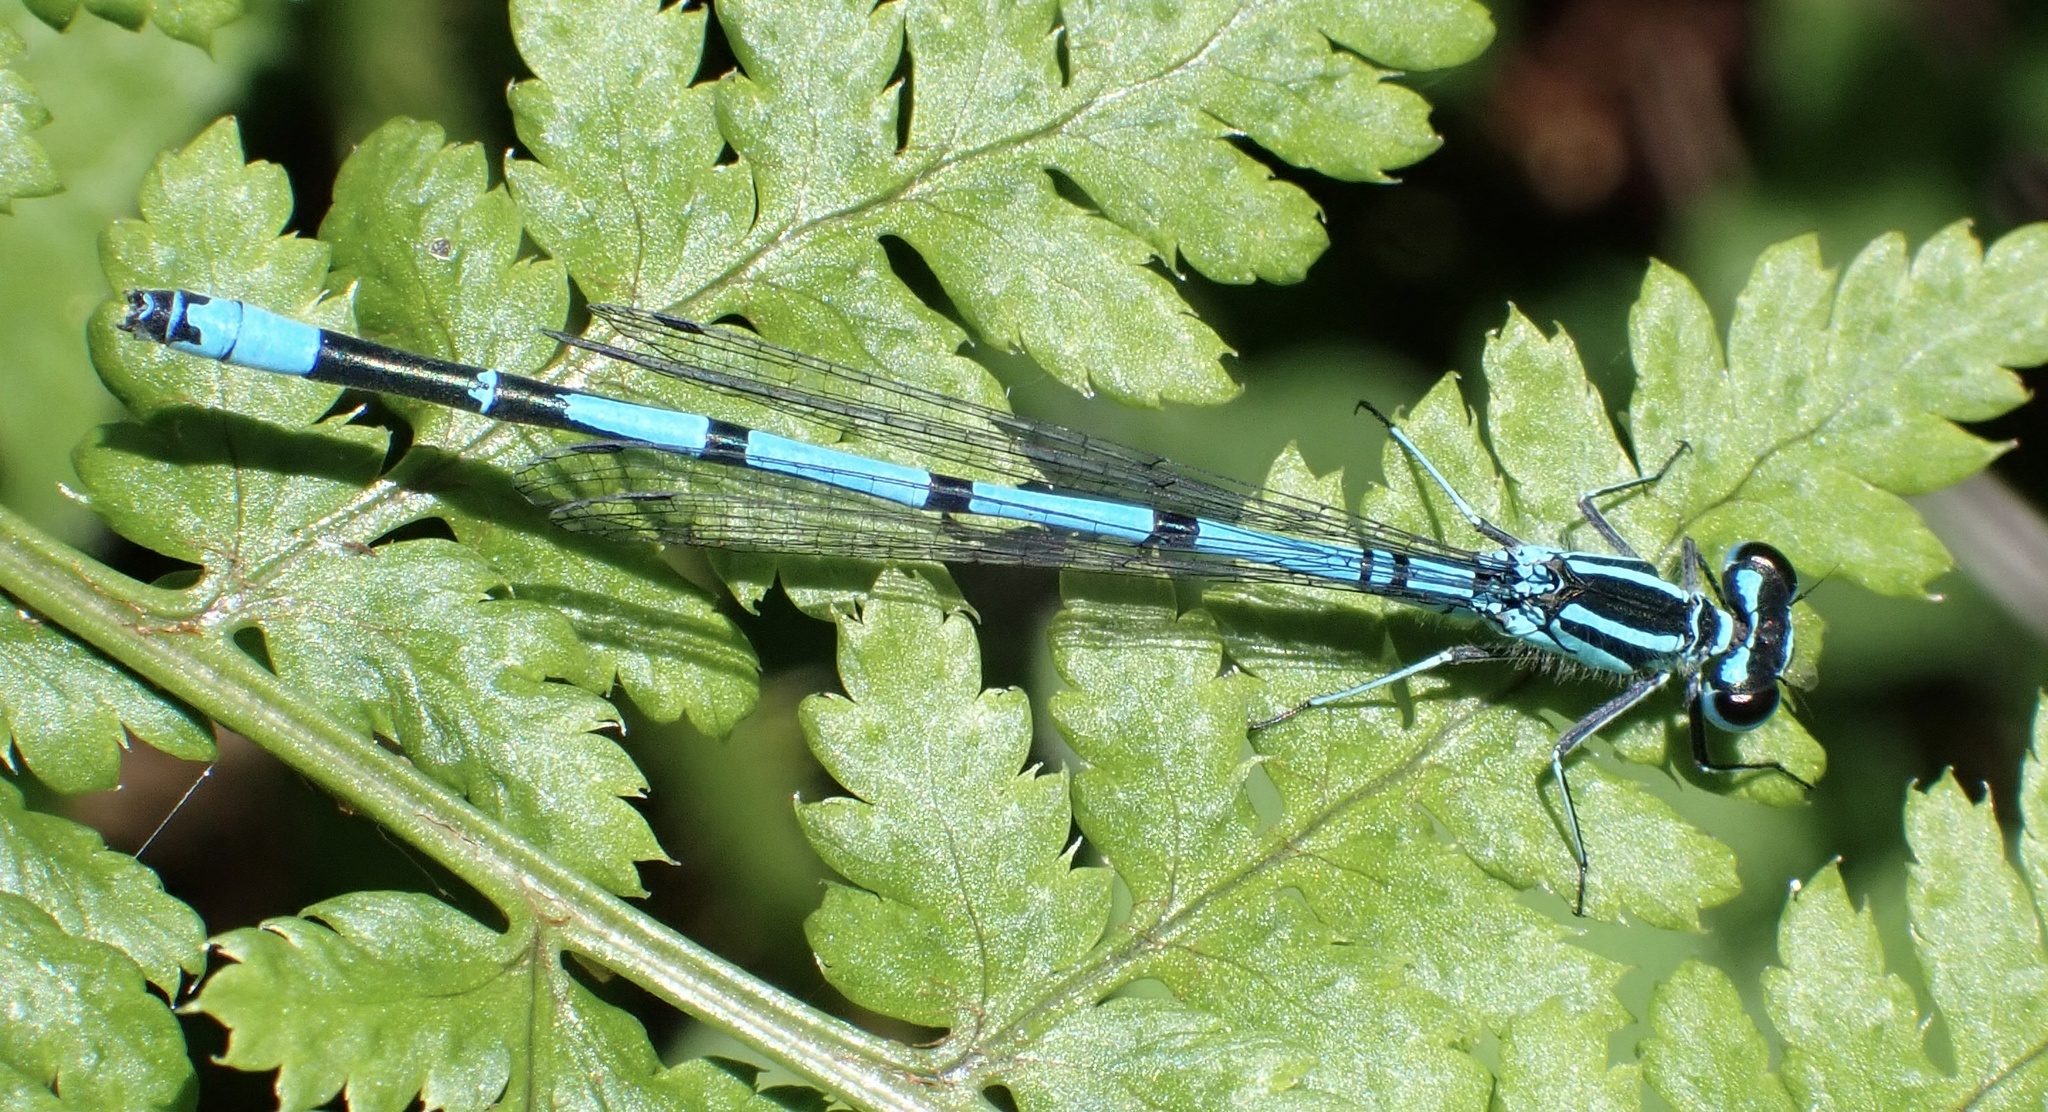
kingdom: Animalia
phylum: Arthropoda
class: Insecta
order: Odonata
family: Coenagrionidae
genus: Coenagrion
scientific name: Coenagrion puella
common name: Azure damselfly
